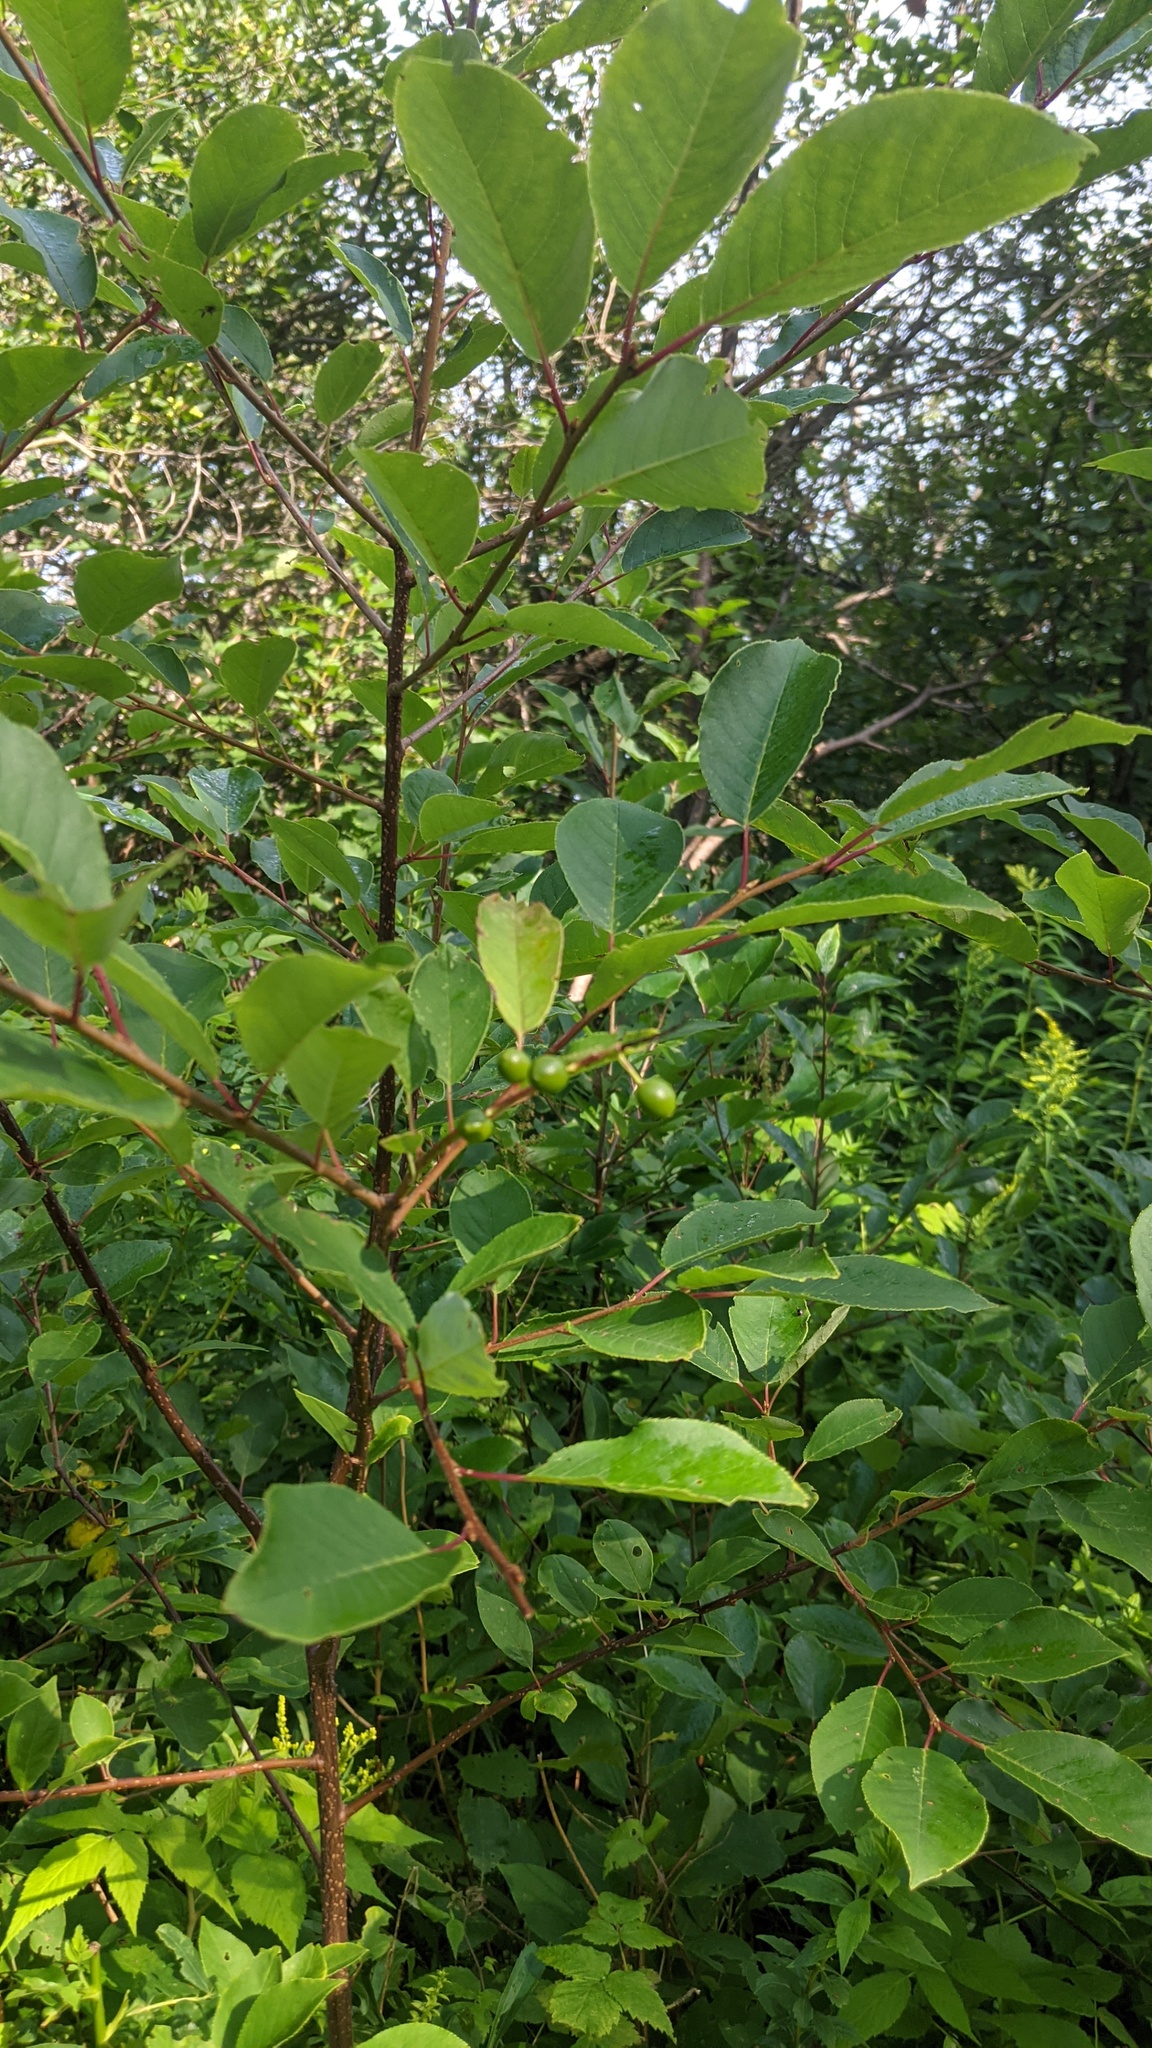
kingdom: Plantae
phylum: Tracheophyta
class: Magnoliopsida
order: Rosales
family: Rosaceae
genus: Prunus
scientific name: Prunus virginiana
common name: Chokecherry
